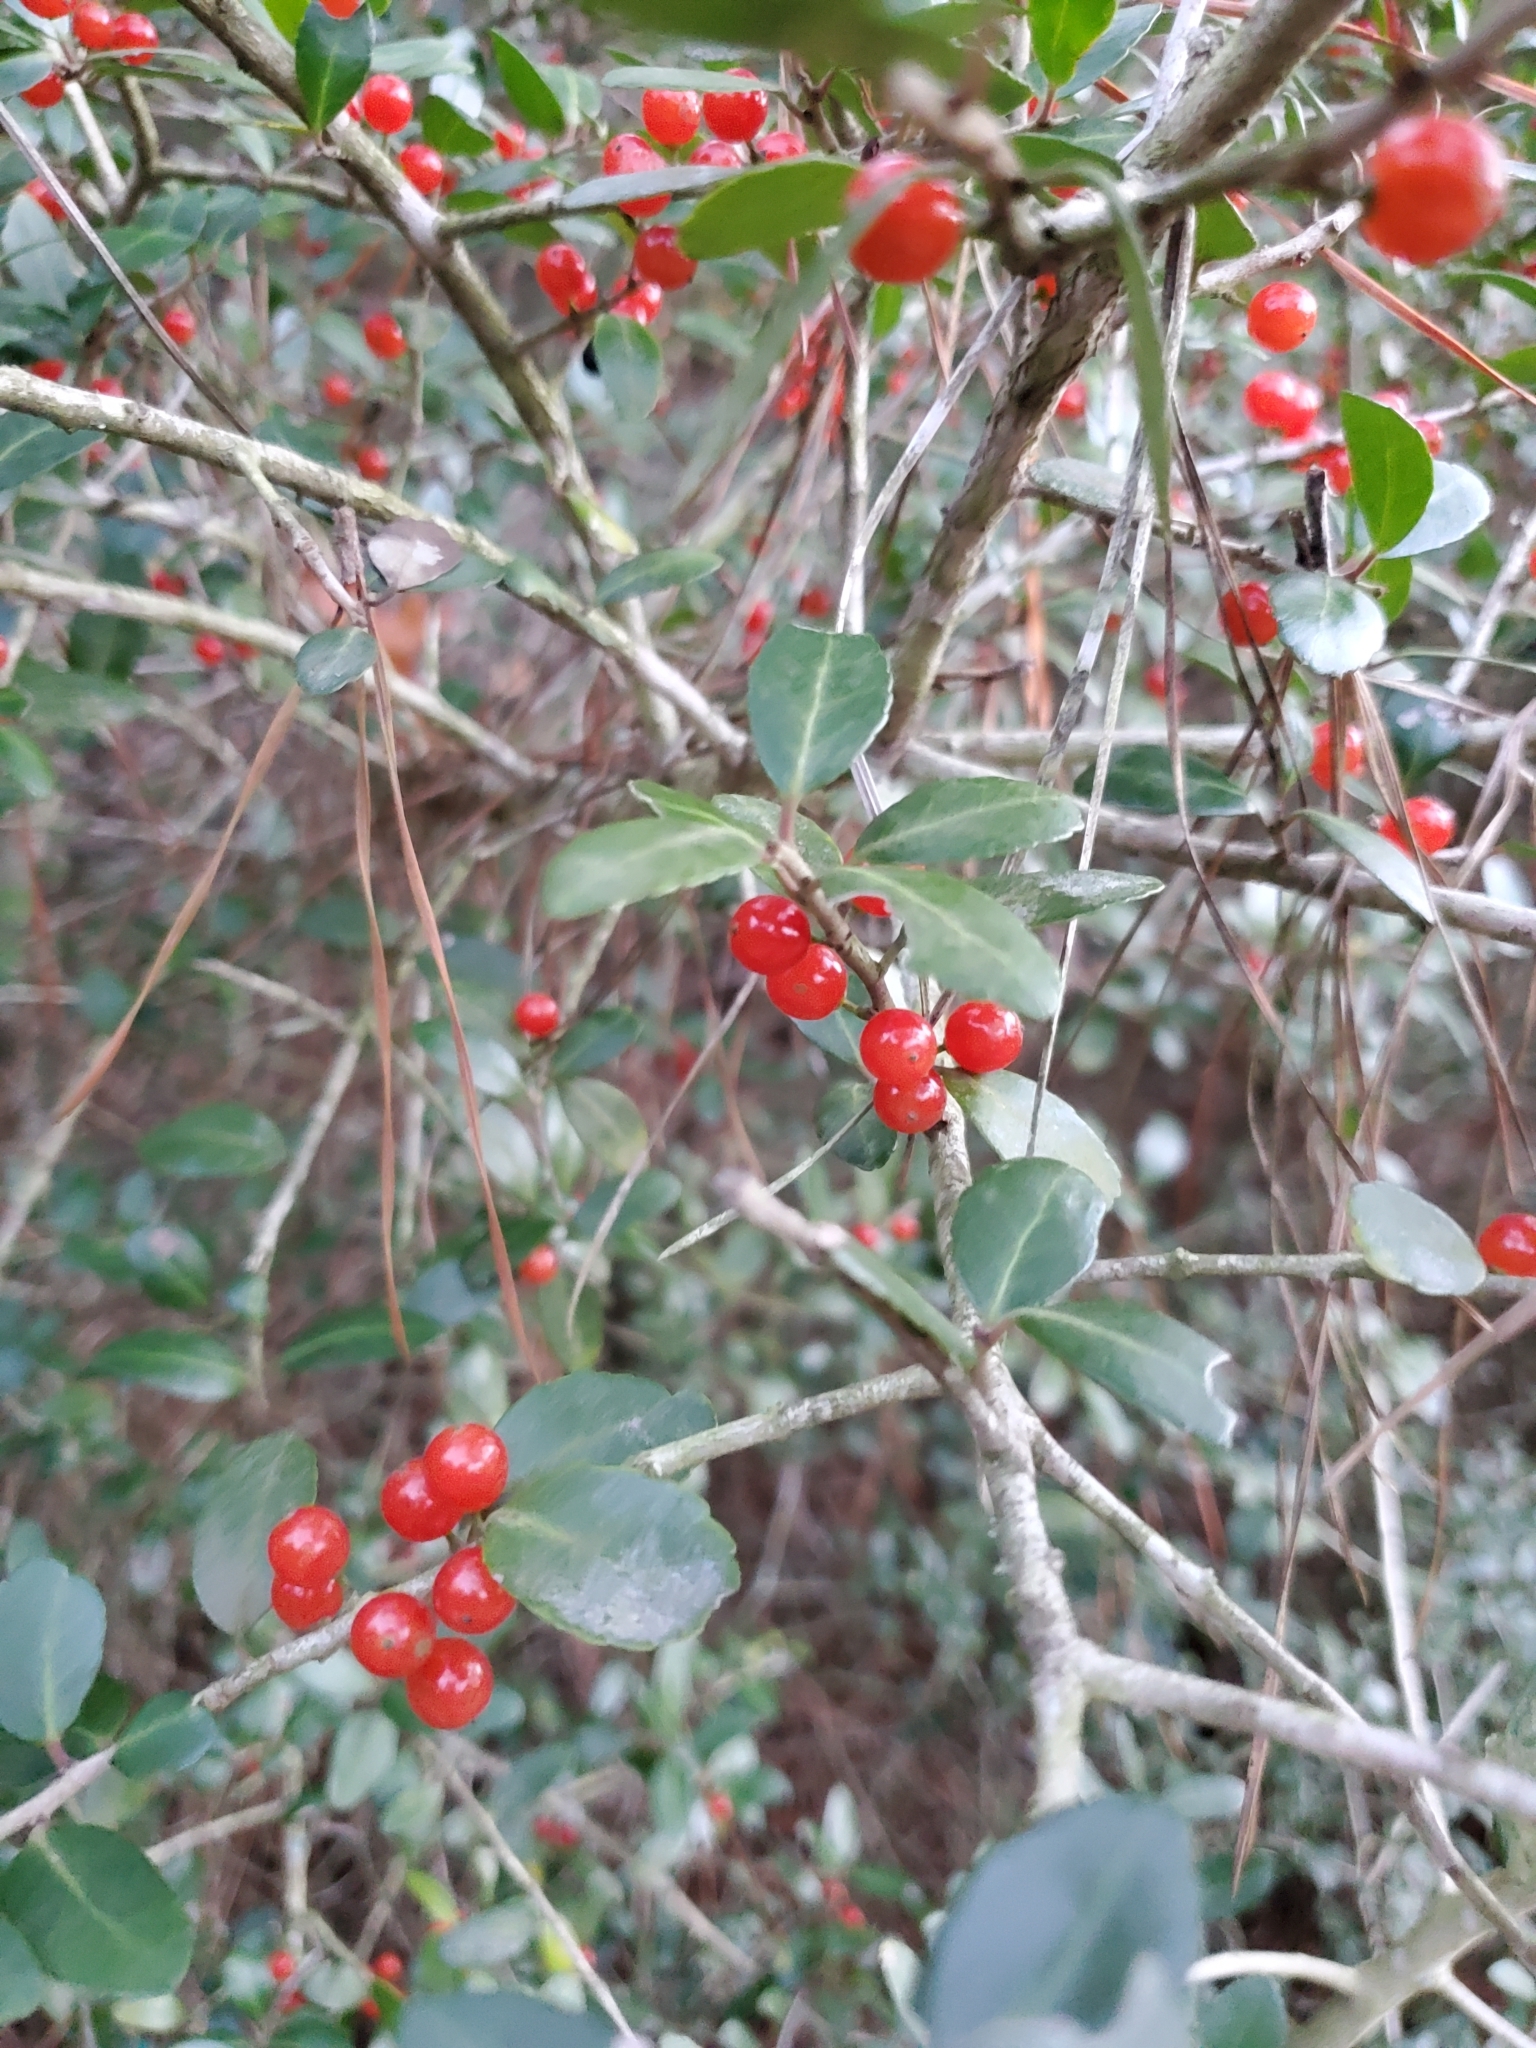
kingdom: Plantae
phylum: Tracheophyta
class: Magnoliopsida
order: Aquifoliales
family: Aquifoliaceae
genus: Ilex
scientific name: Ilex vomitoria
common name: Yaupon holly
